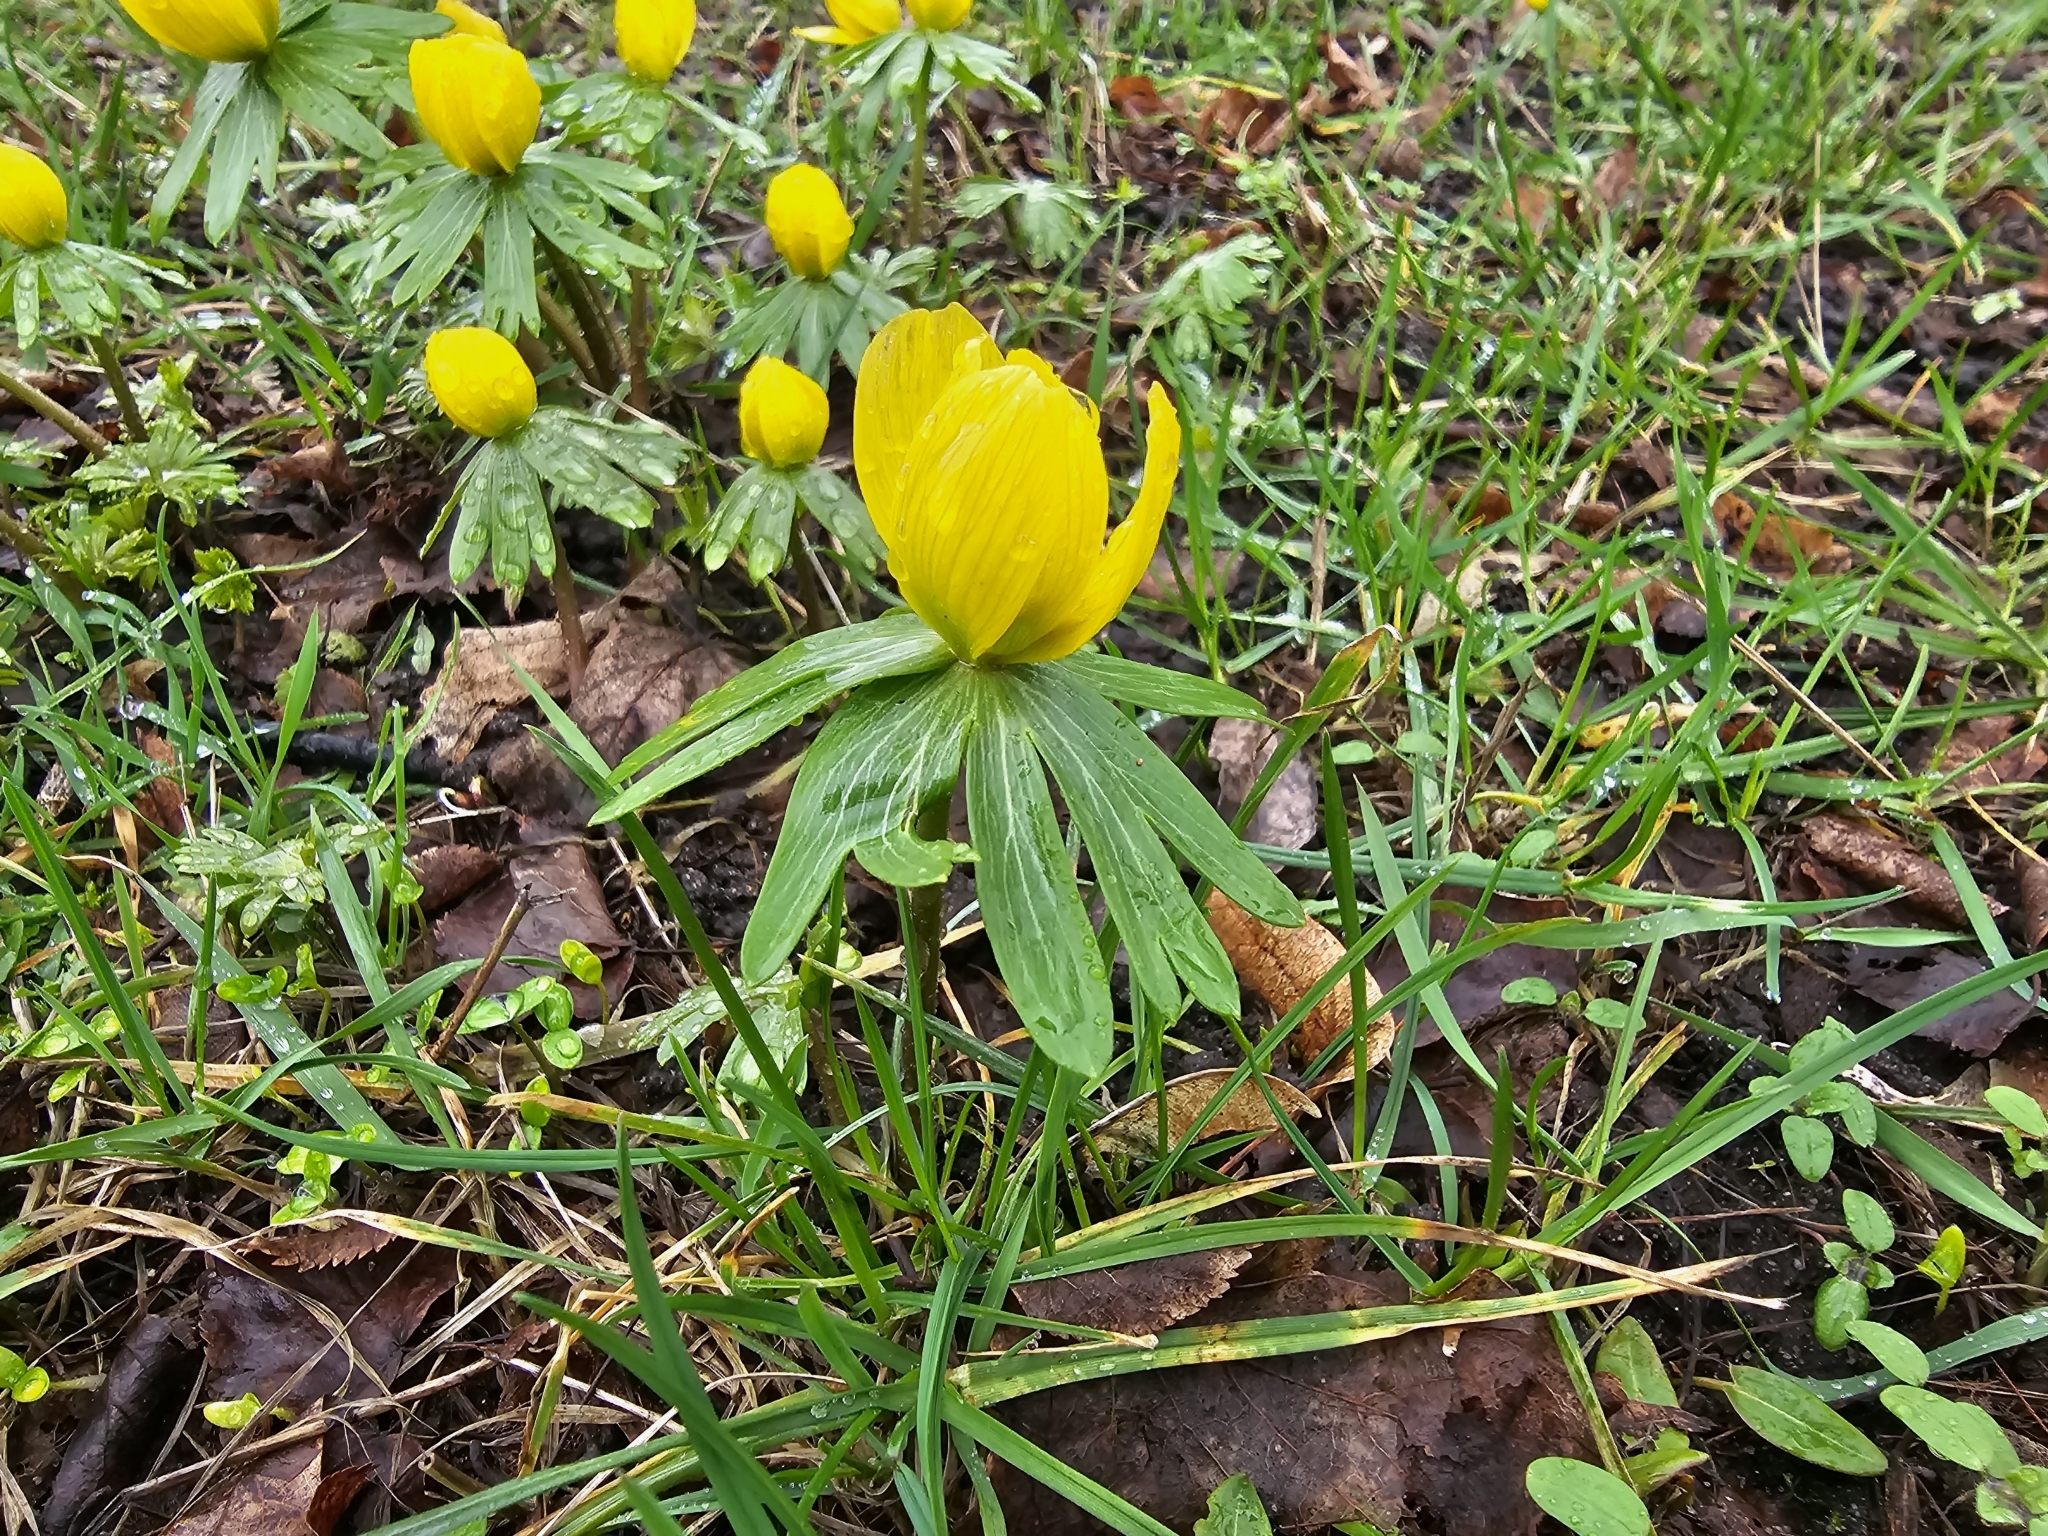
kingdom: Plantae
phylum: Tracheophyta
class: Magnoliopsida
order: Ranunculales
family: Ranunculaceae
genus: Eranthis
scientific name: Eranthis hyemalis
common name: Winter aconite
